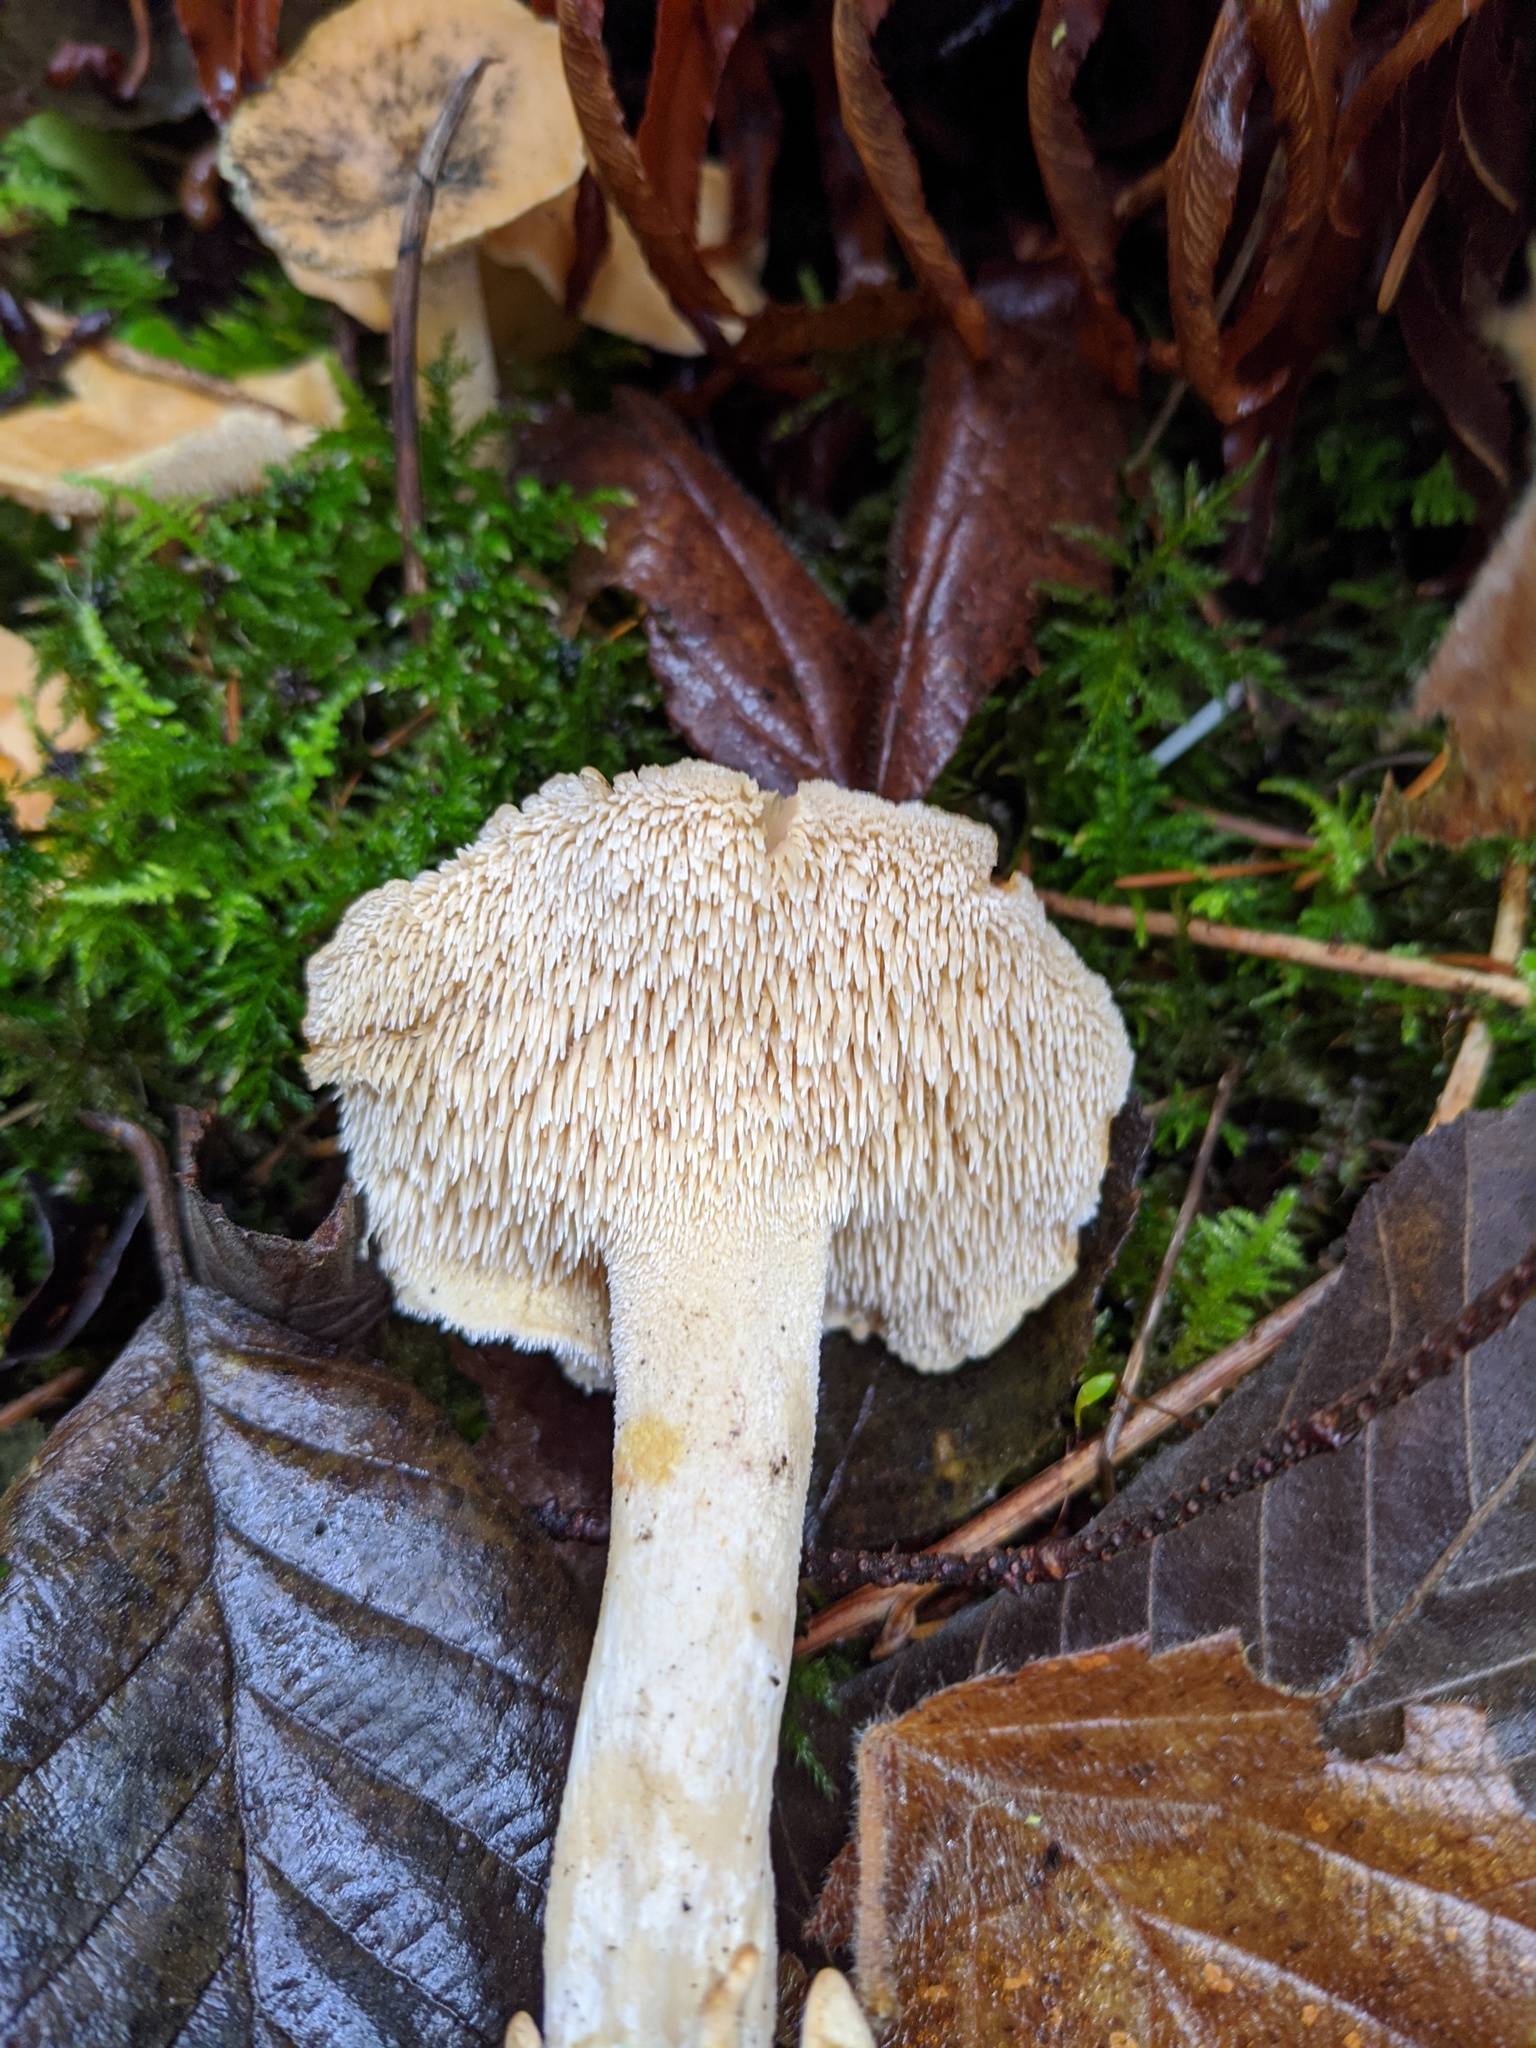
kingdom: Fungi
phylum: Basidiomycota
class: Agaricomycetes
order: Cantharellales
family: Hydnaceae
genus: Hydnum
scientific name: Hydnum umbilicatum
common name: Umbilicate hedgehog
